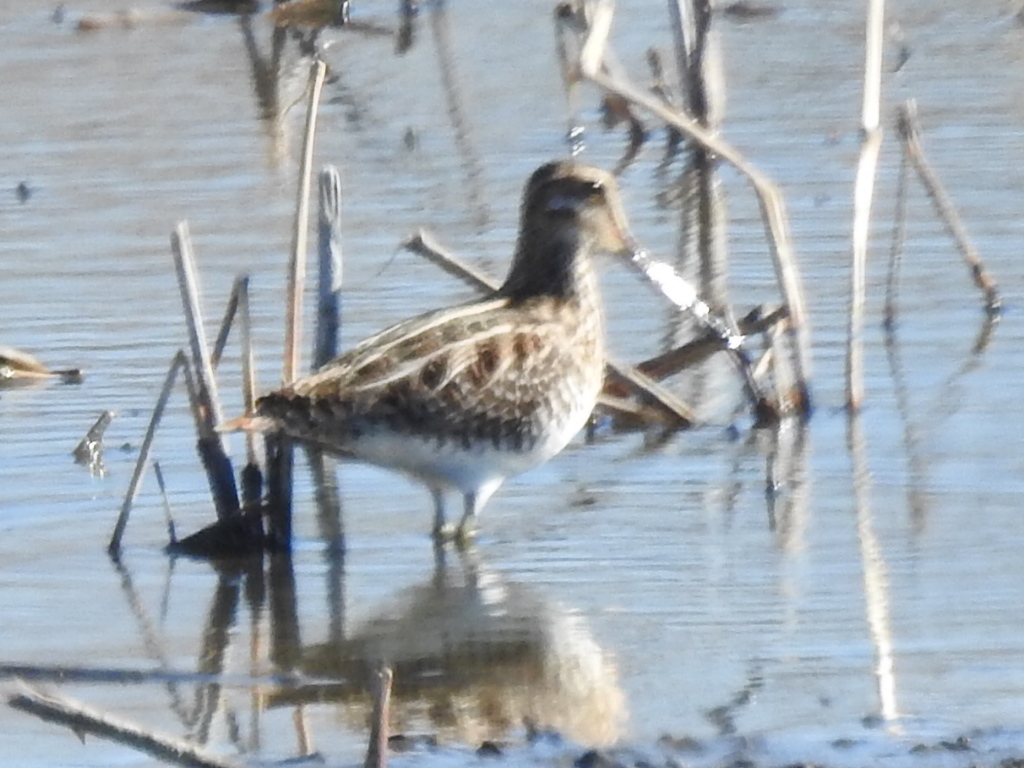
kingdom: Animalia
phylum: Chordata
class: Aves
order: Charadriiformes
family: Scolopacidae
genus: Gallinago
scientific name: Gallinago delicata
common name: Wilson's snipe
